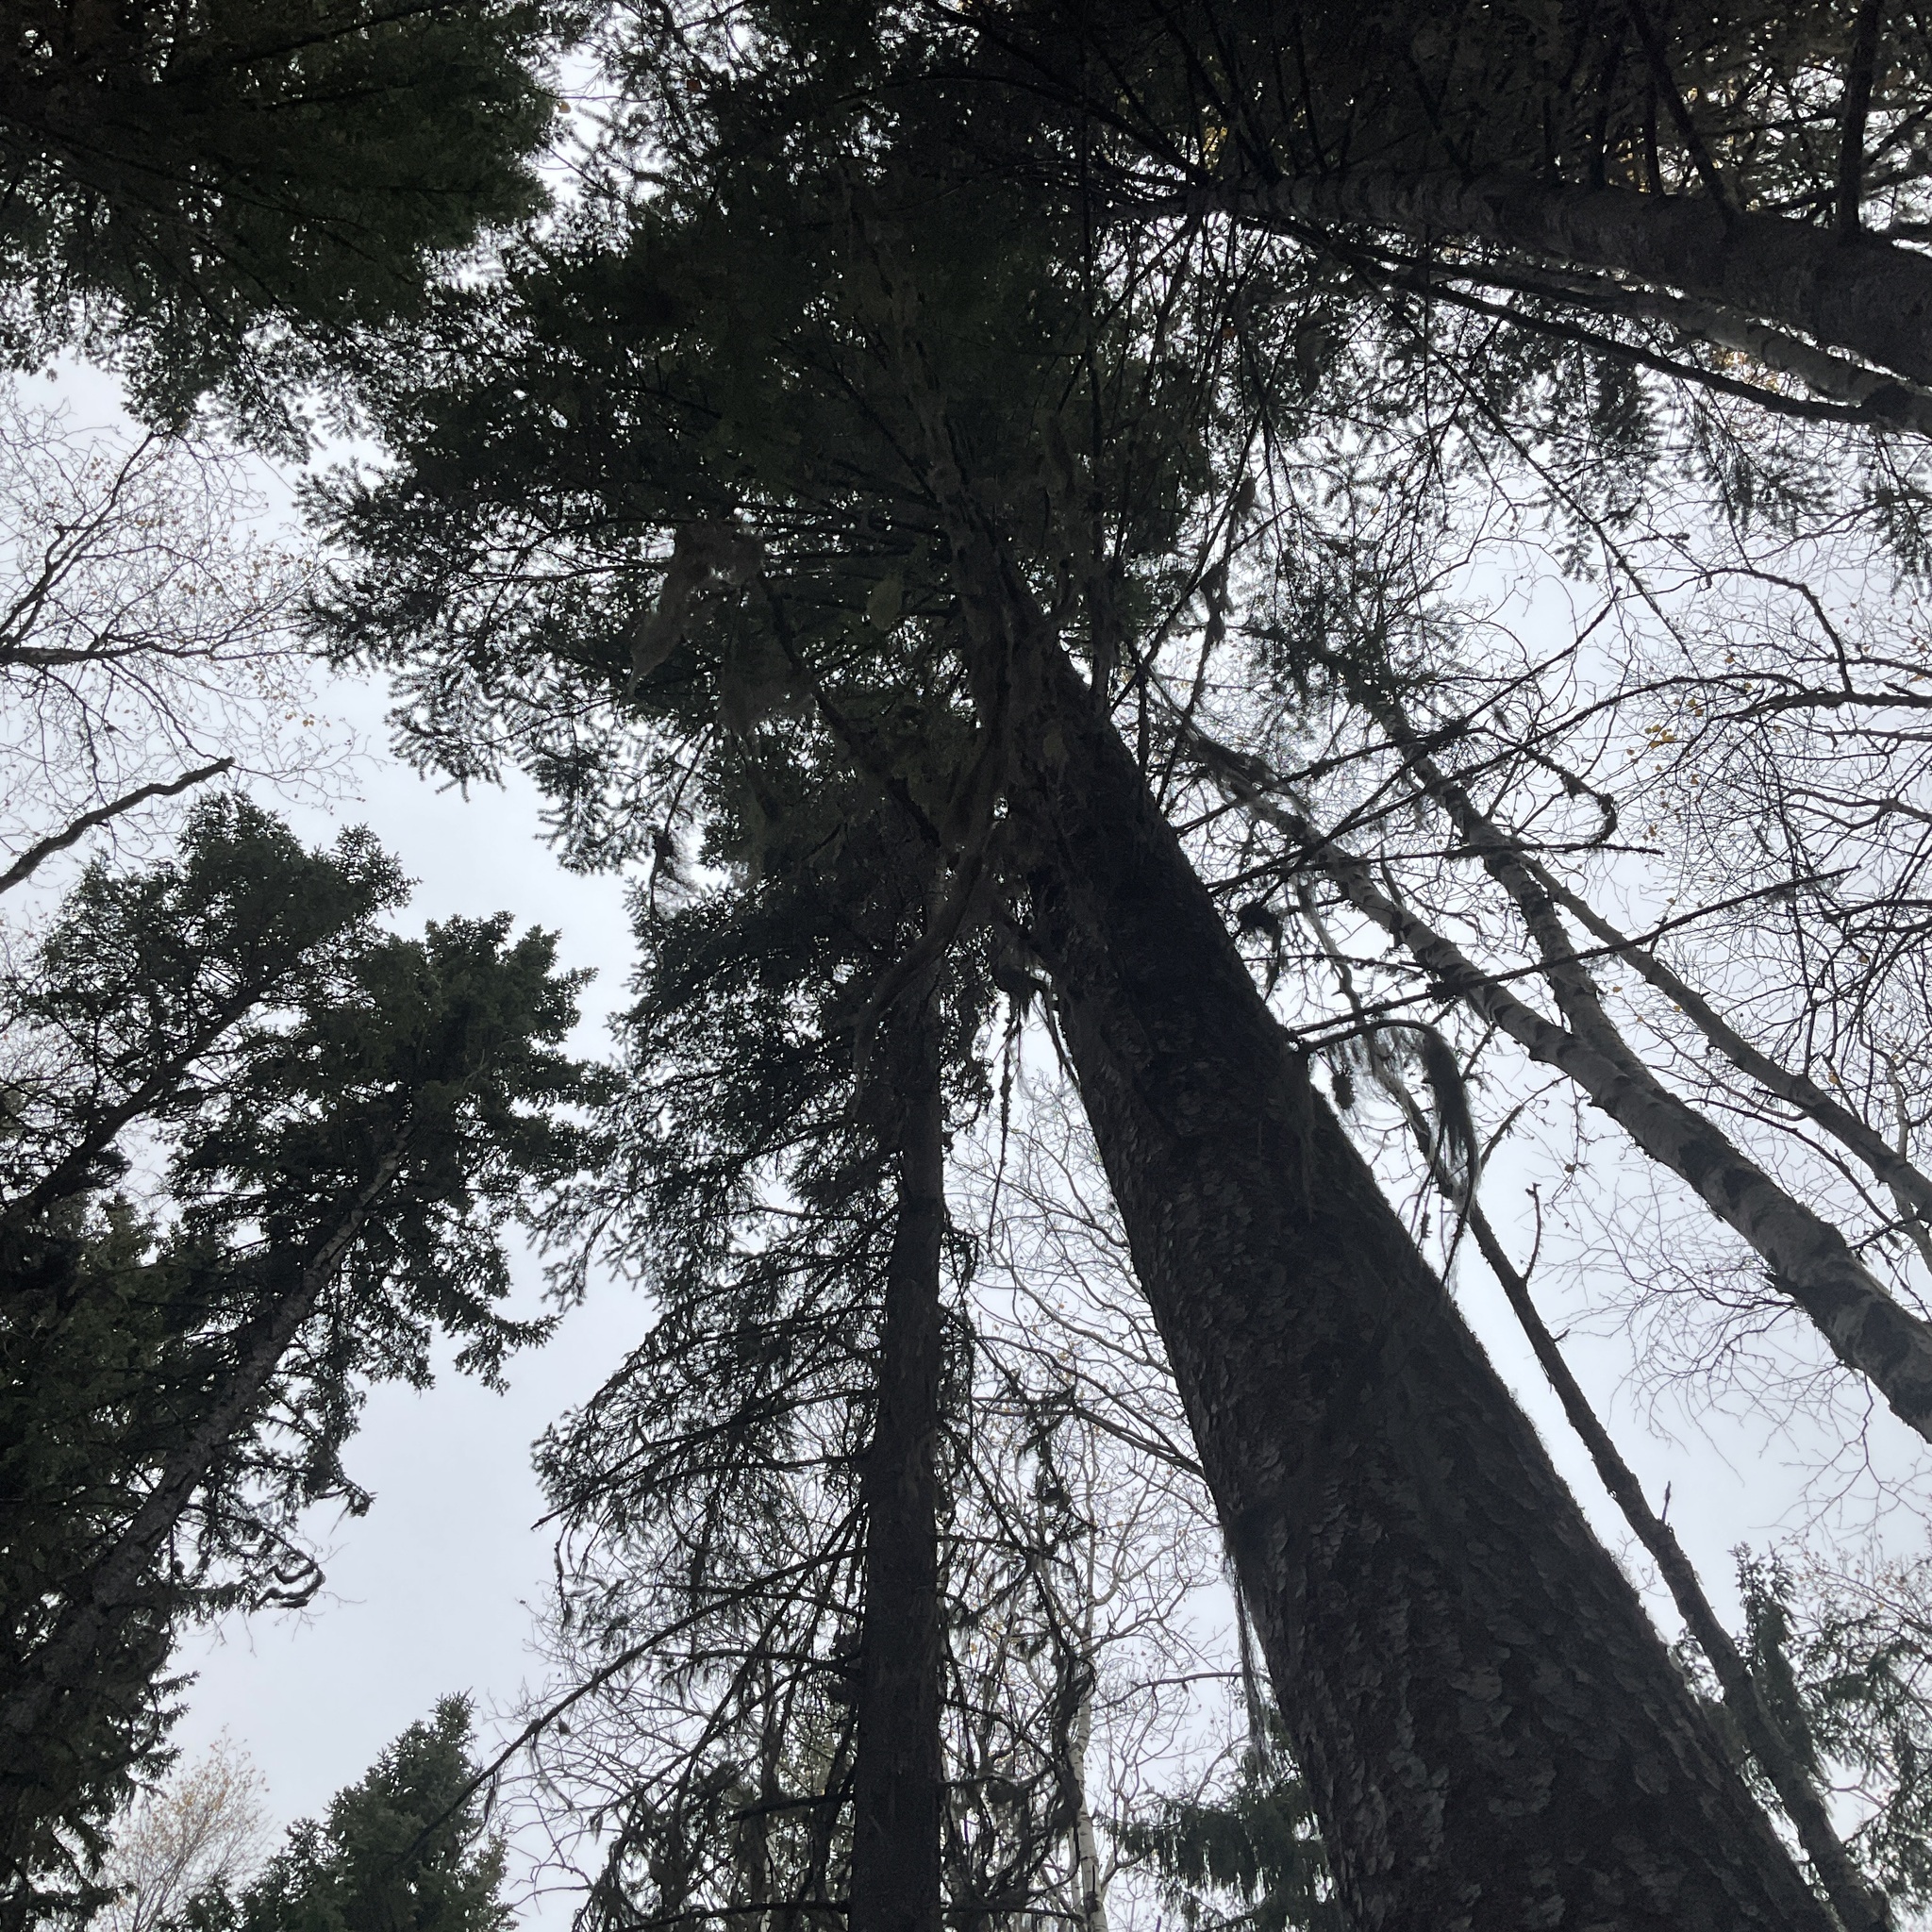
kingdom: Plantae
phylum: Tracheophyta
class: Pinopsida
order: Pinales
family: Pinaceae
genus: Pseudotsuga
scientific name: Pseudotsuga menziesii
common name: Douglas fir
